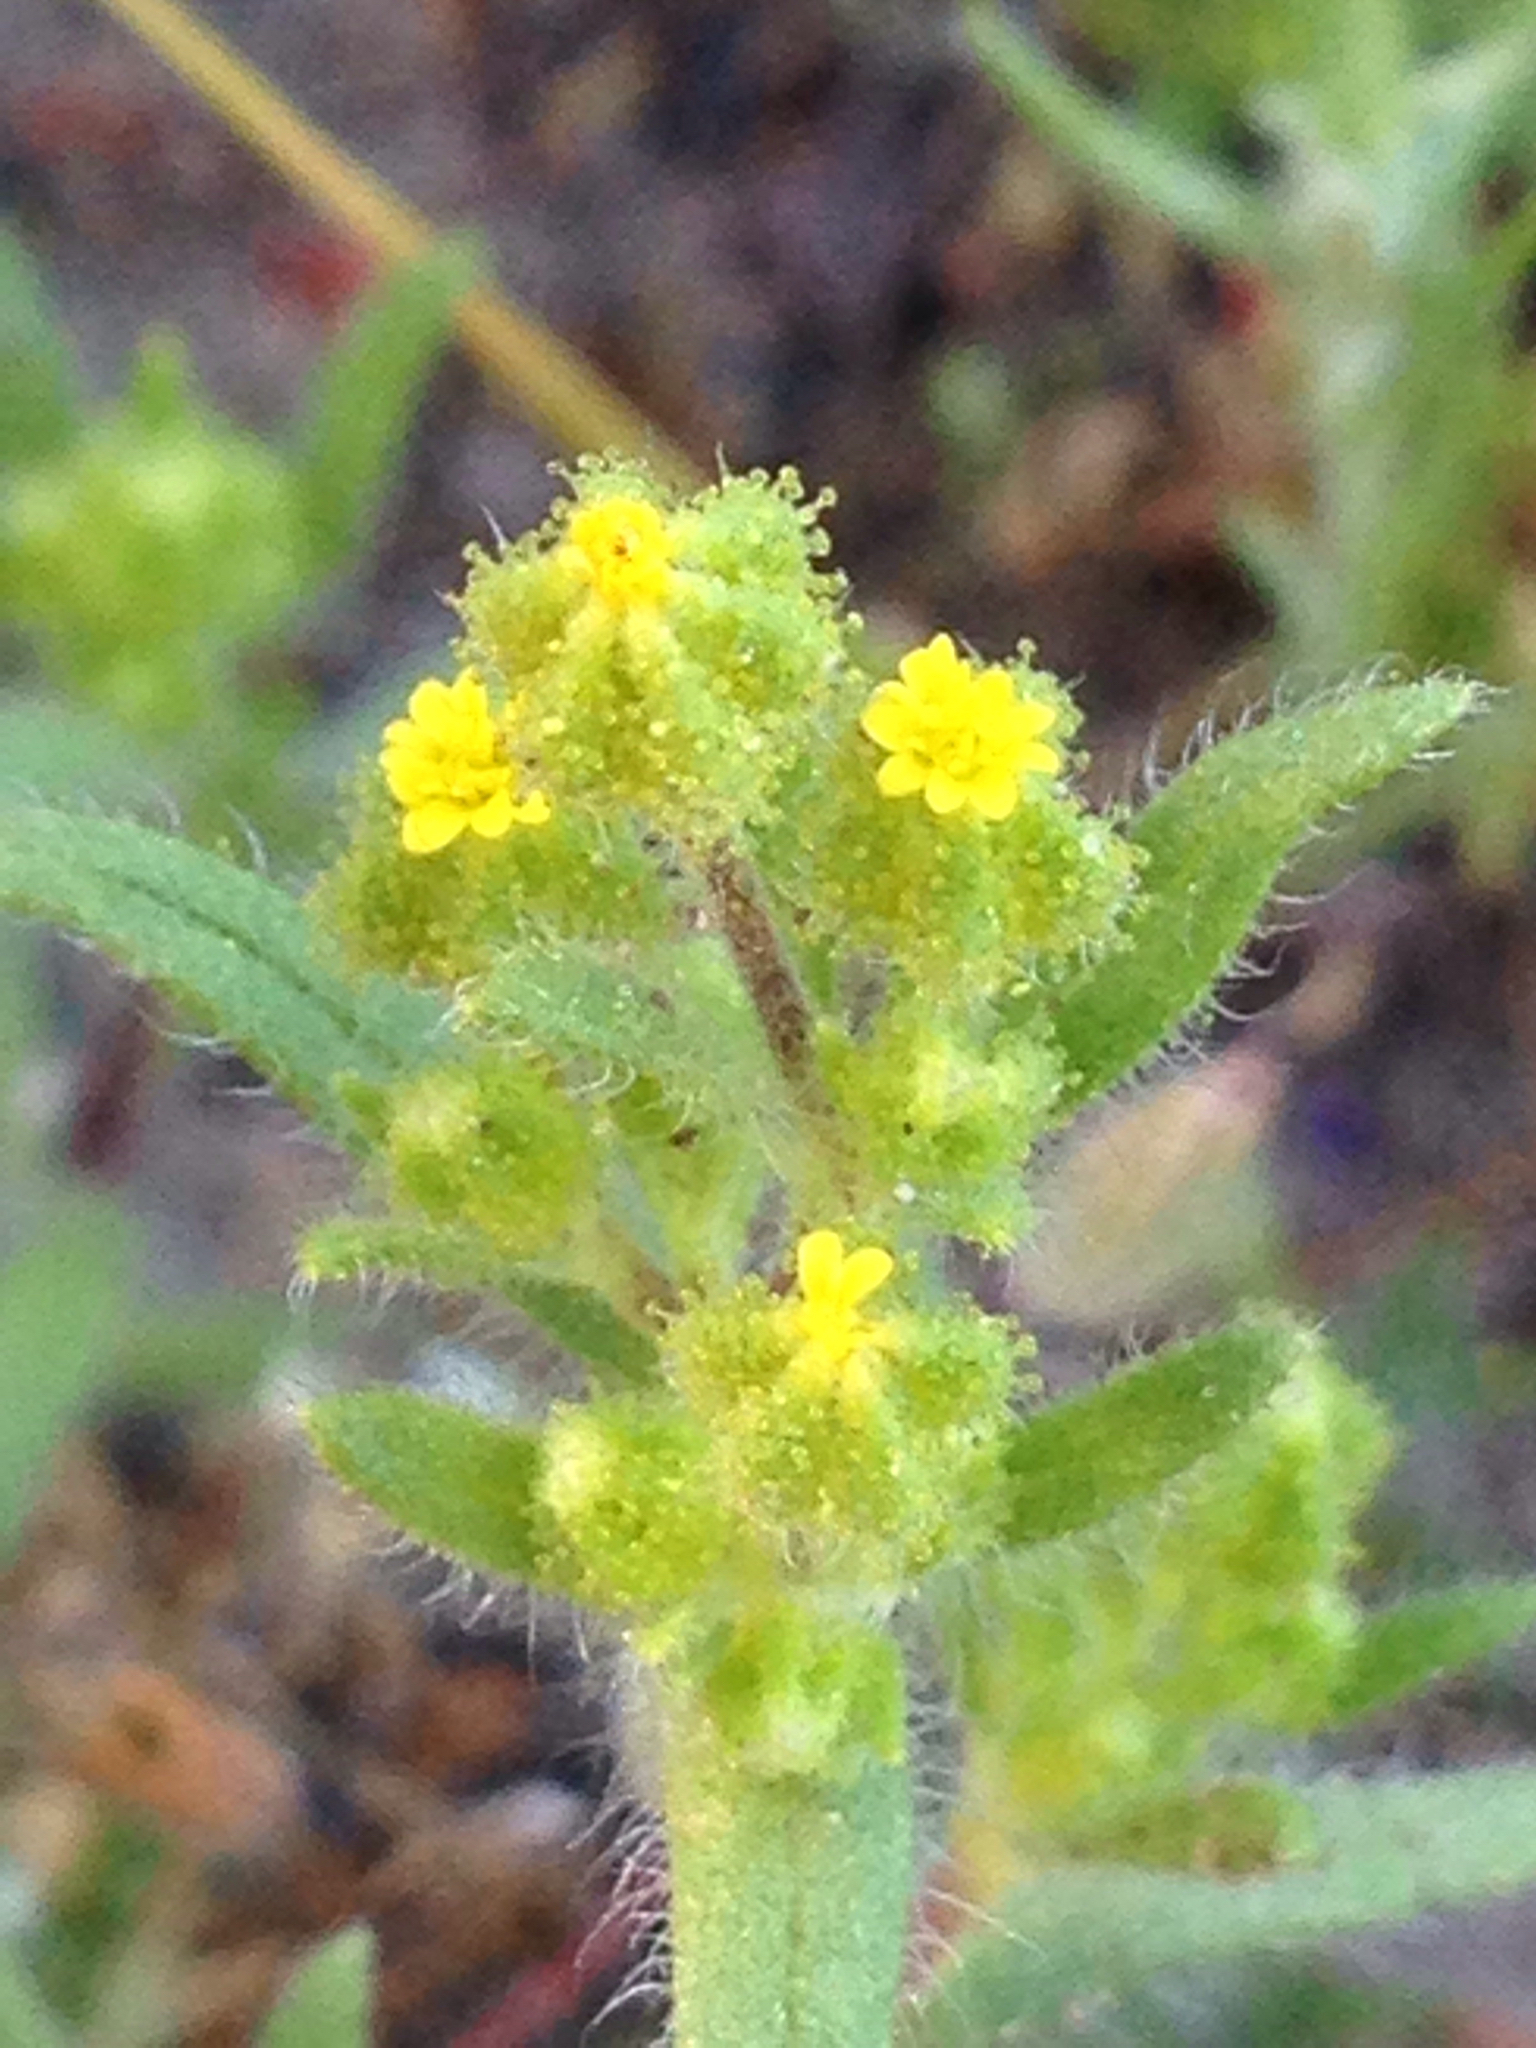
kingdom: Plantae
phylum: Tracheophyta
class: Magnoliopsida
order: Asterales
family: Asteraceae
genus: Madia
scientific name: Madia exigua
